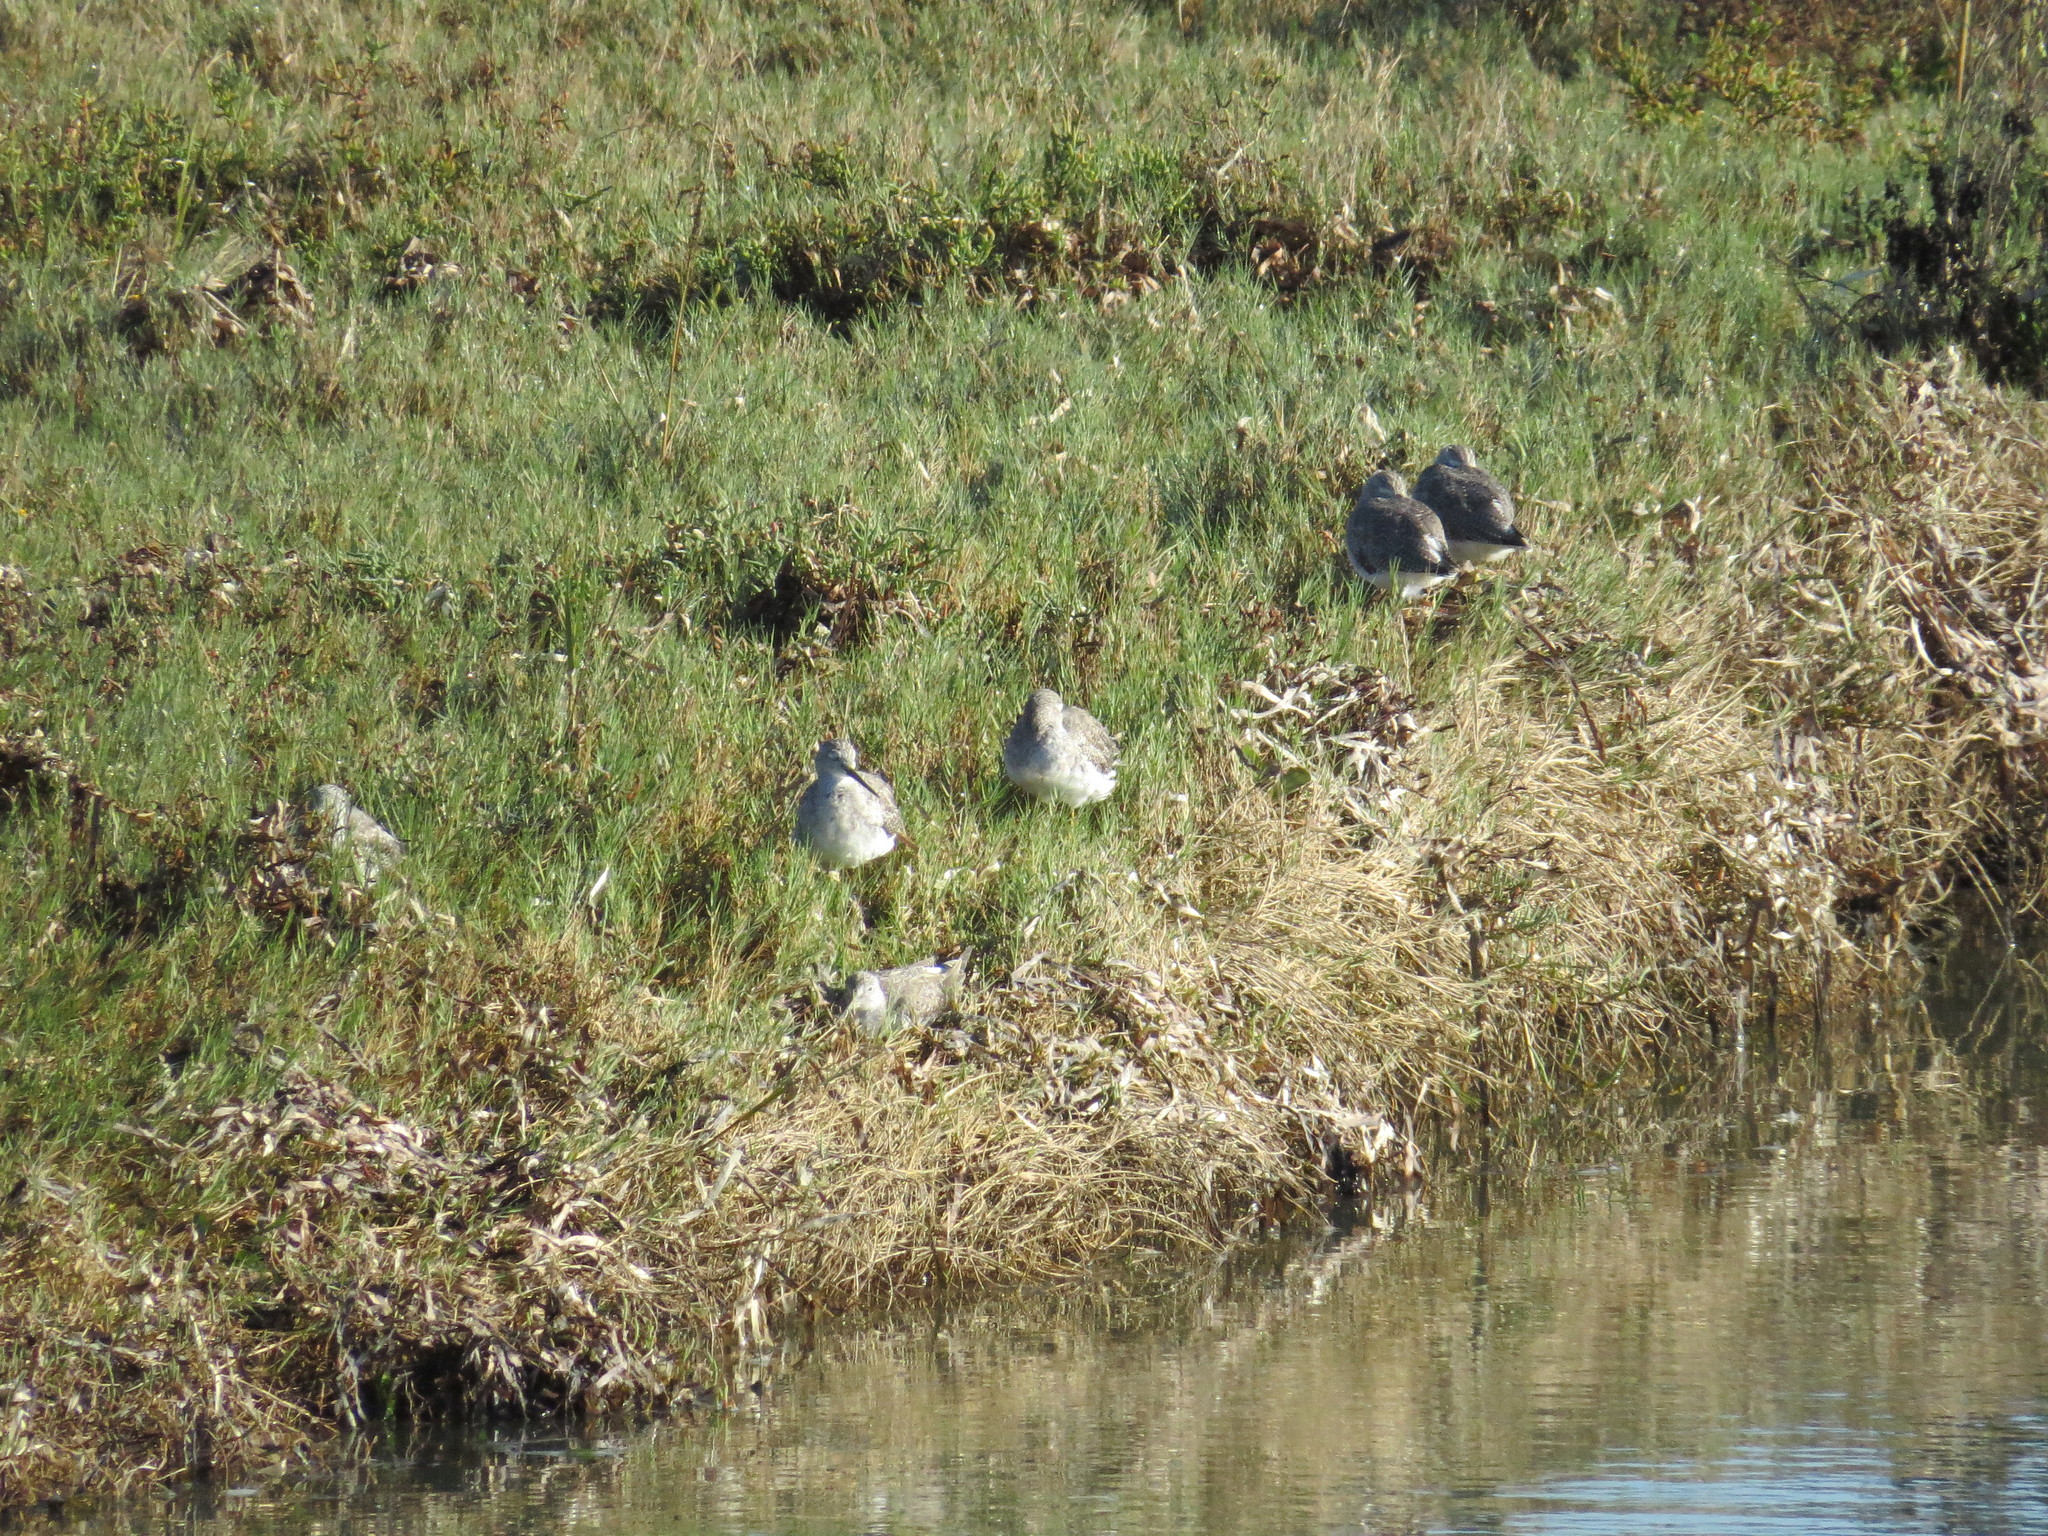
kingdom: Animalia
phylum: Chordata
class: Aves
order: Charadriiformes
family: Scolopacidae
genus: Tringa
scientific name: Tringa melanoleuca
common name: Greater yellowlegs
